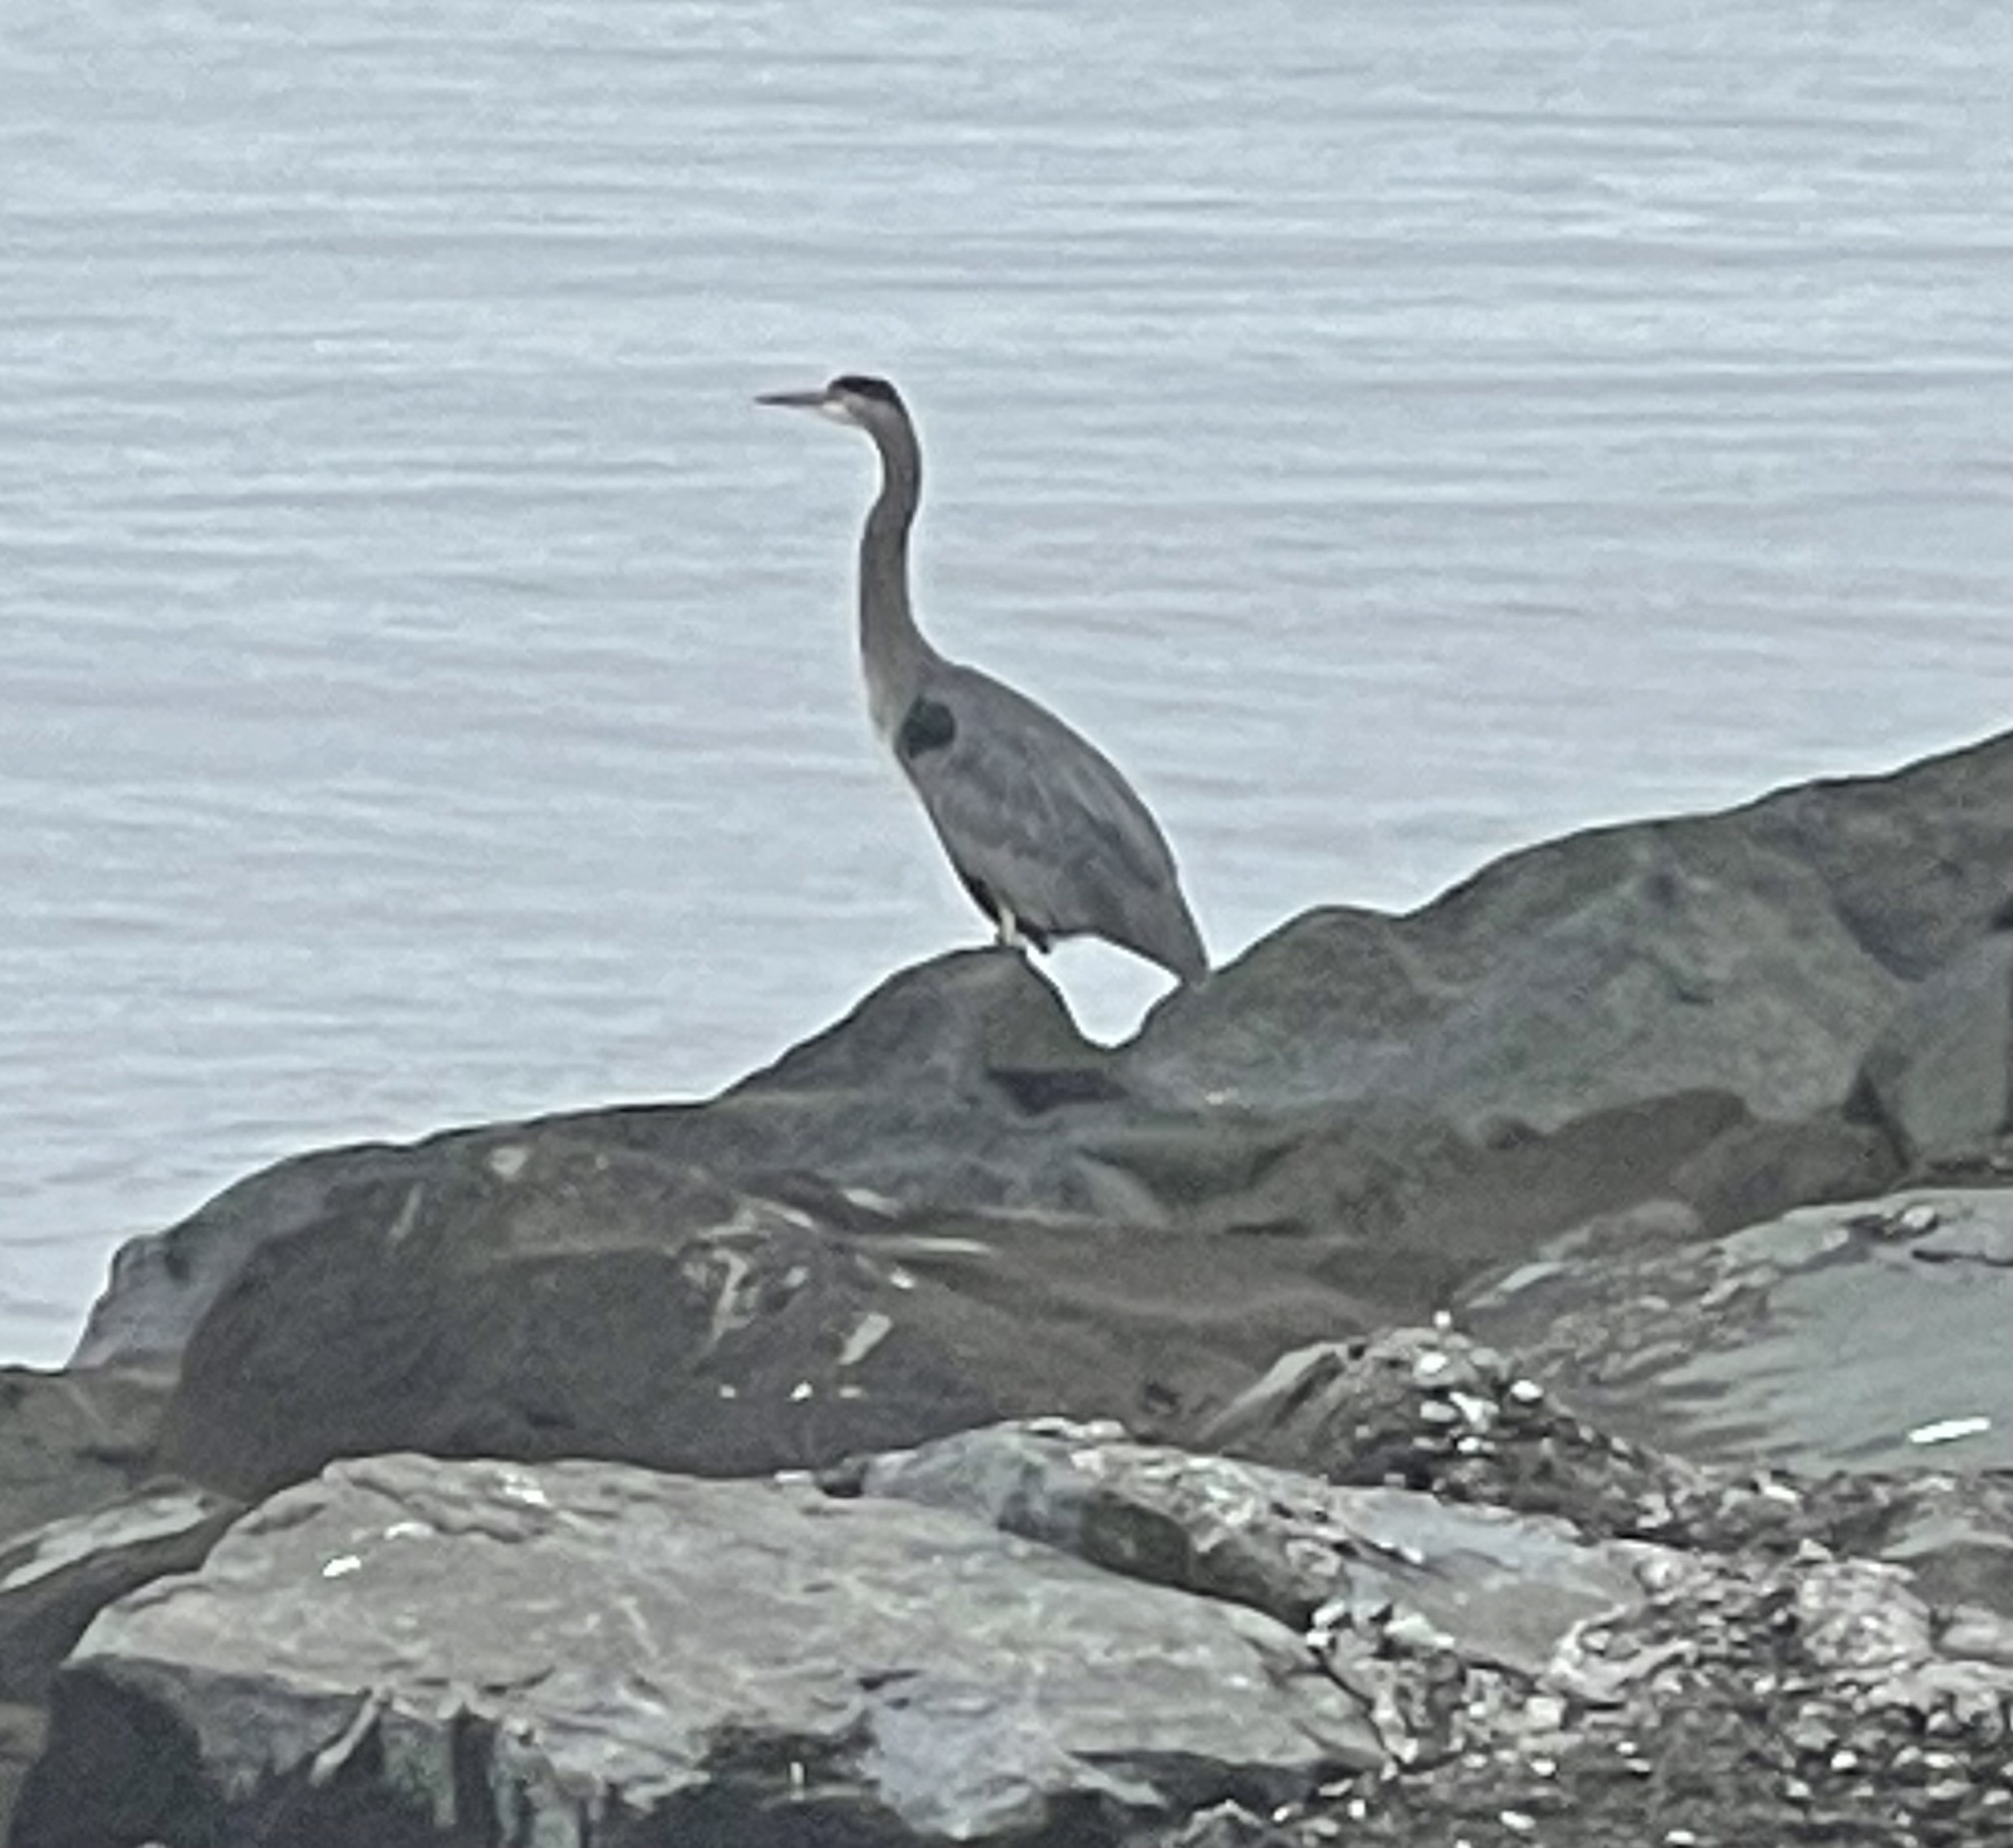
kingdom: Animalia
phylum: Chordata
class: Aves
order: Pelecaniformes
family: Ardeidae
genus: Ardea
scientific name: Ardea herodias
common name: Great blue heron
